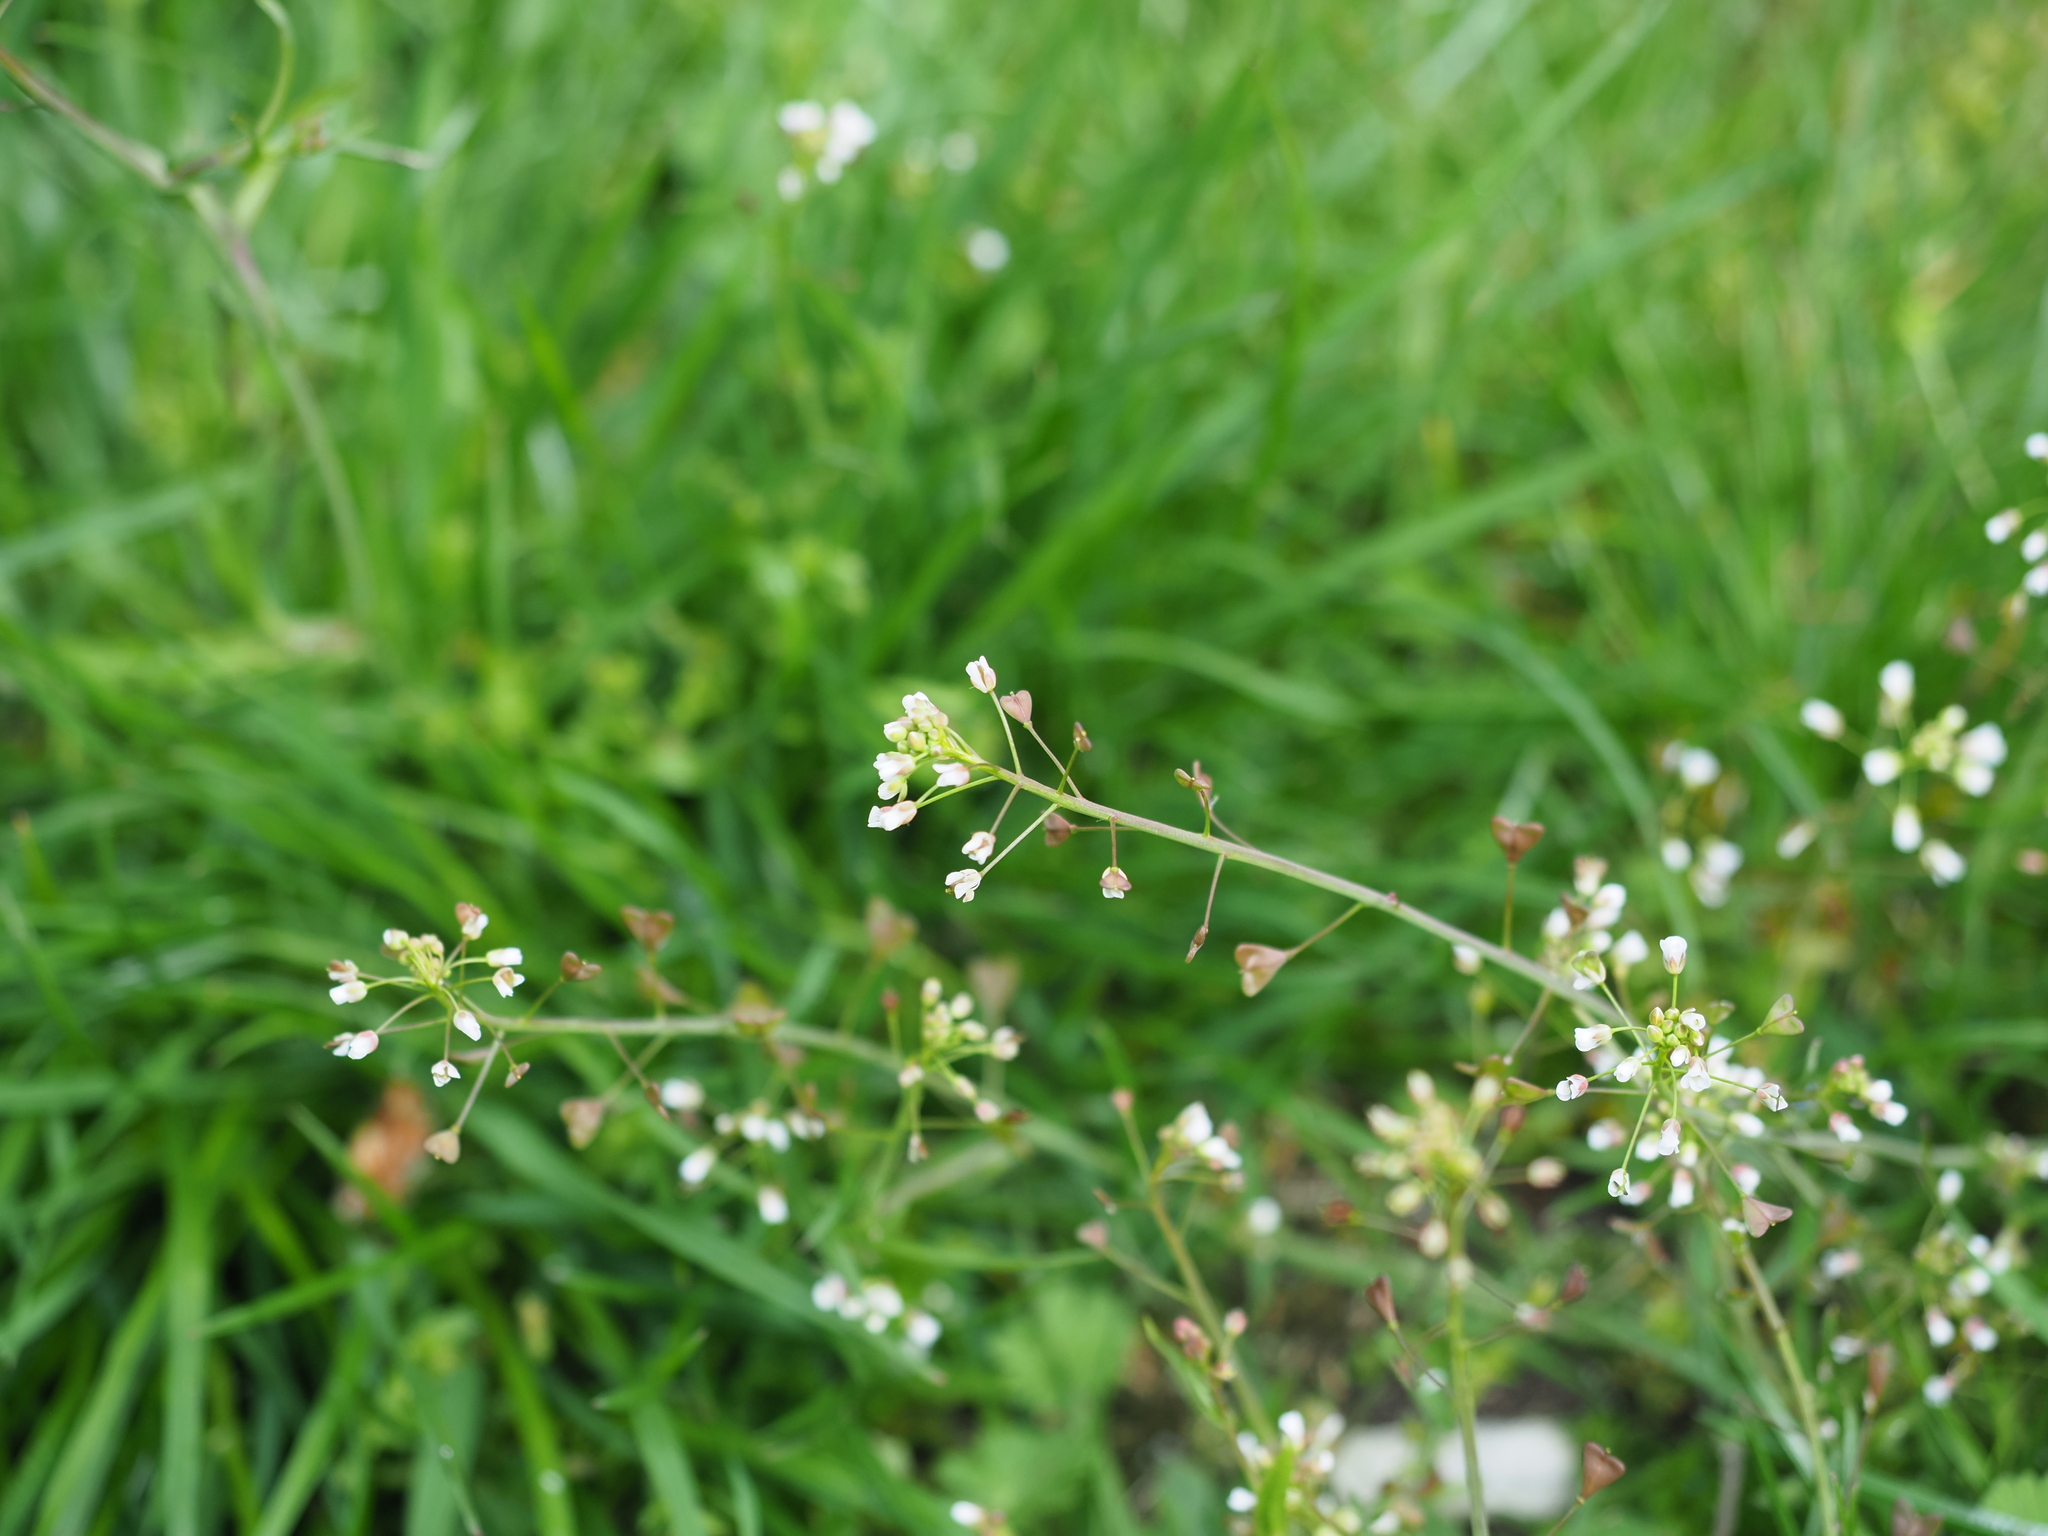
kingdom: Plantae
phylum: Tracheophyta
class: Magnoliopsida
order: Brassicales
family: Brassicaceae
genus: Capsella
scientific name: Capsella bursa-pastoris
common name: Shepherd's purse
